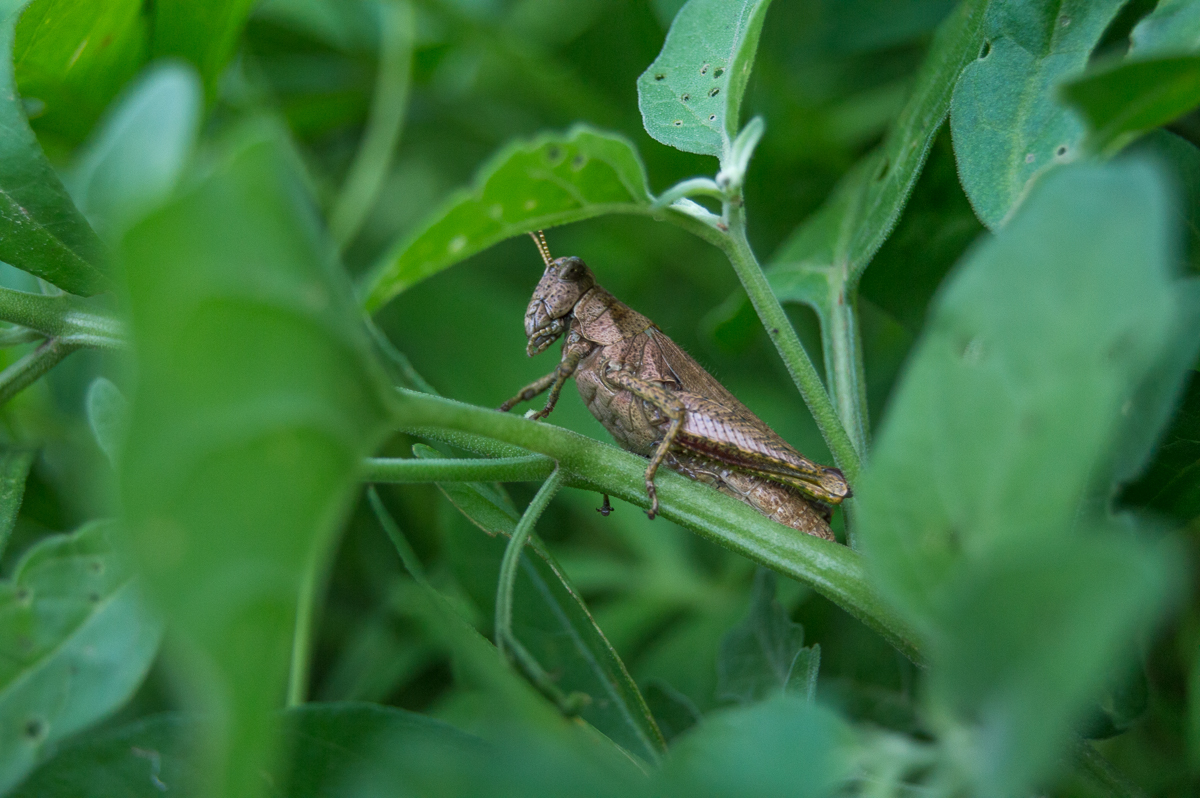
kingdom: Animalia
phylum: Arthropoda
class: Insecta
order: Orthoptera
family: Acrididae
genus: Ronderosia
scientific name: Ronderosia bergii
